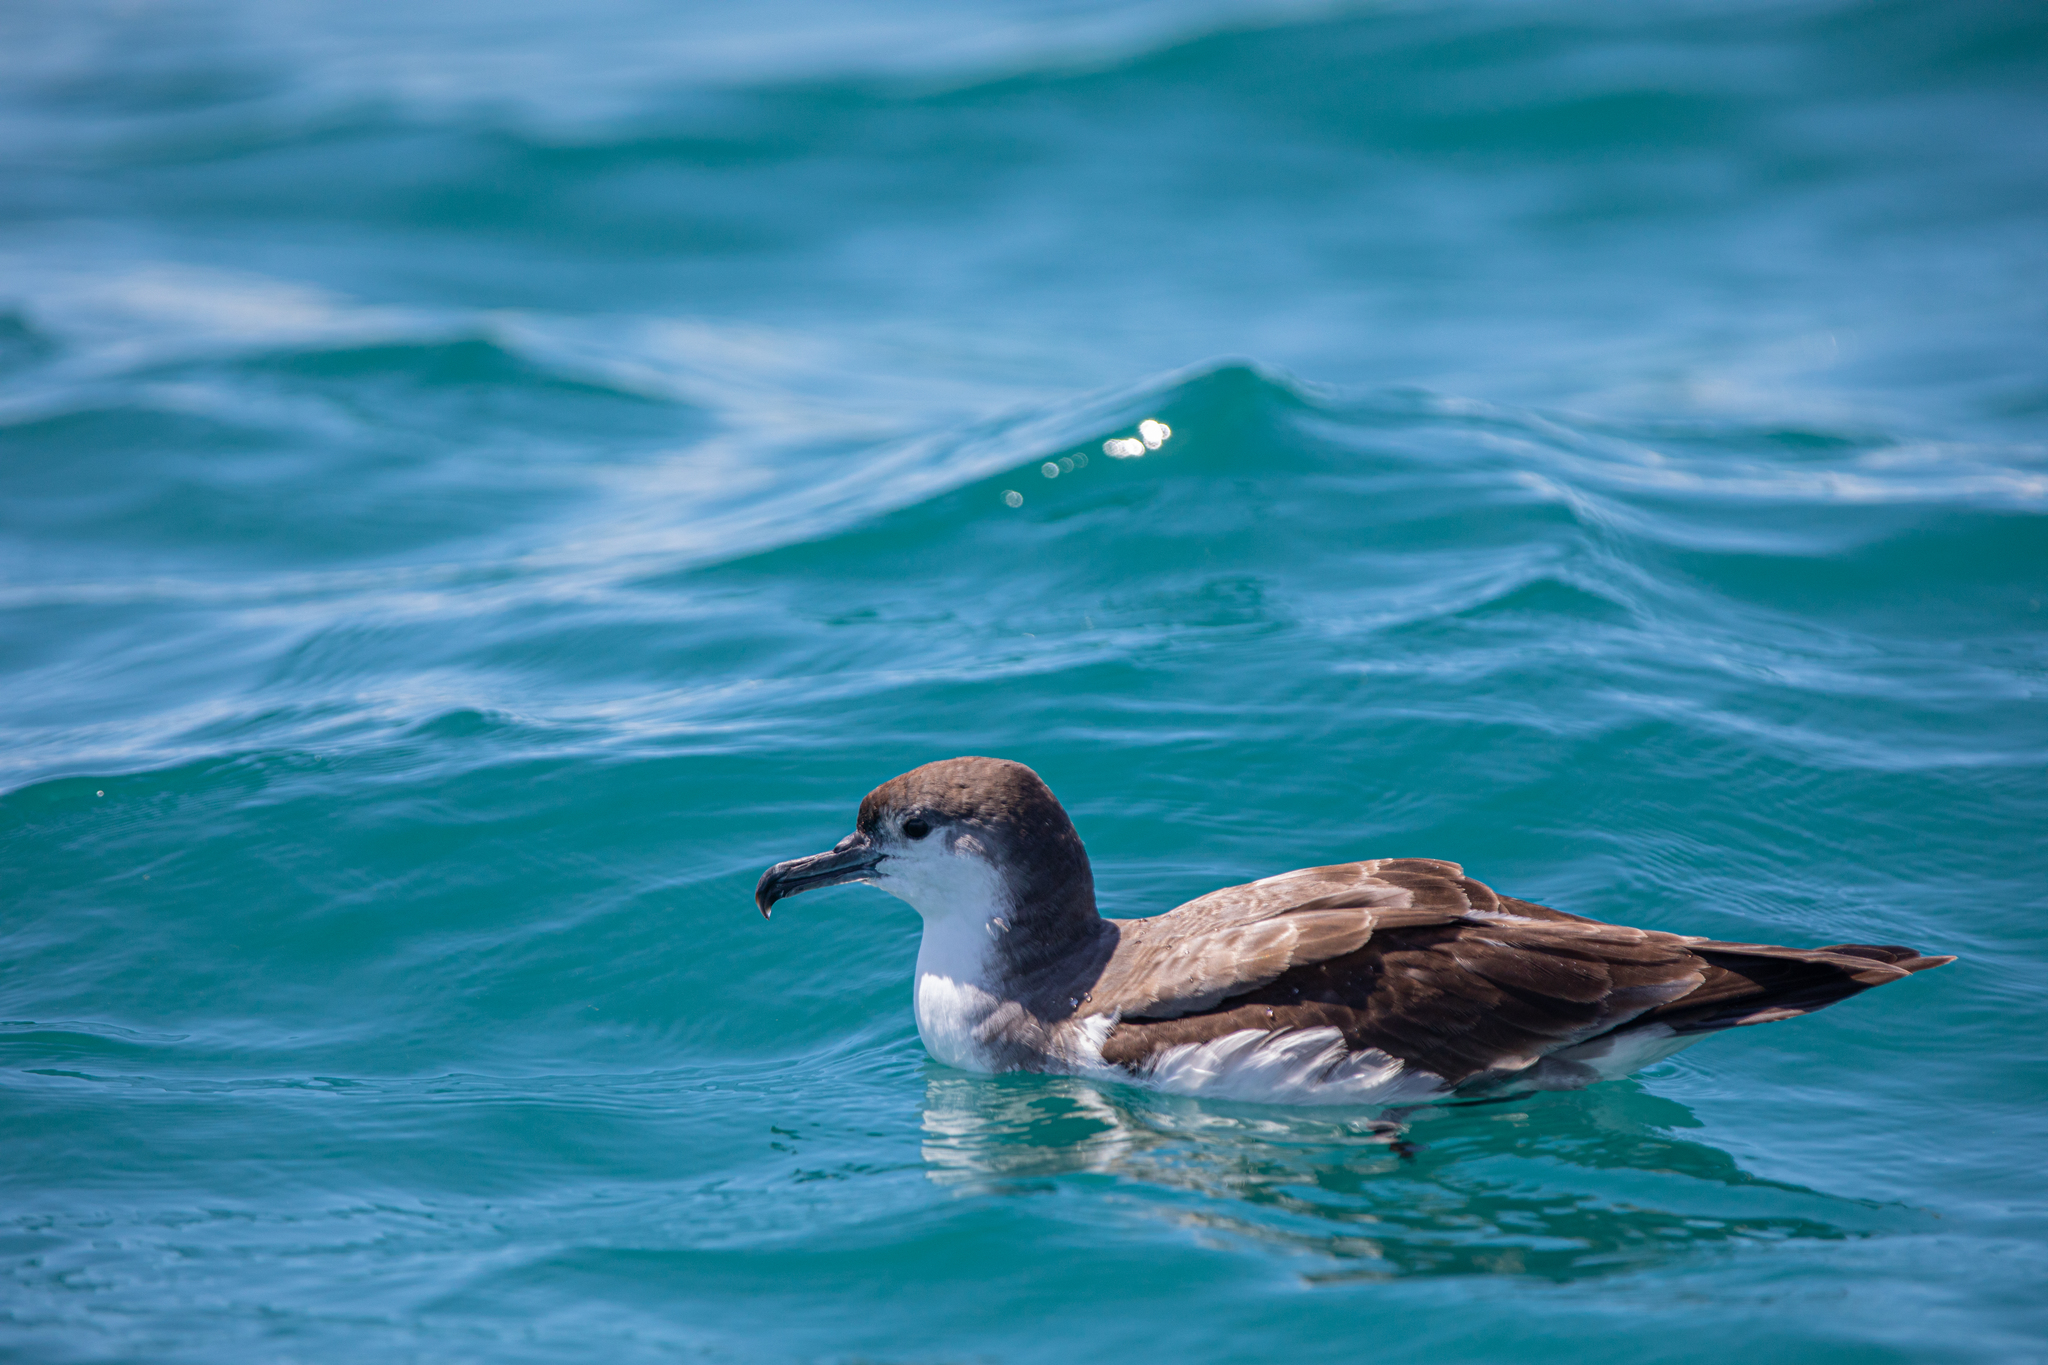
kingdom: Animalia
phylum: Chordata
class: Aves
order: Procellariiformes
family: Procellariidae
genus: Puffinus
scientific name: Puffinus bulleri
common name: Buller's shearwater
